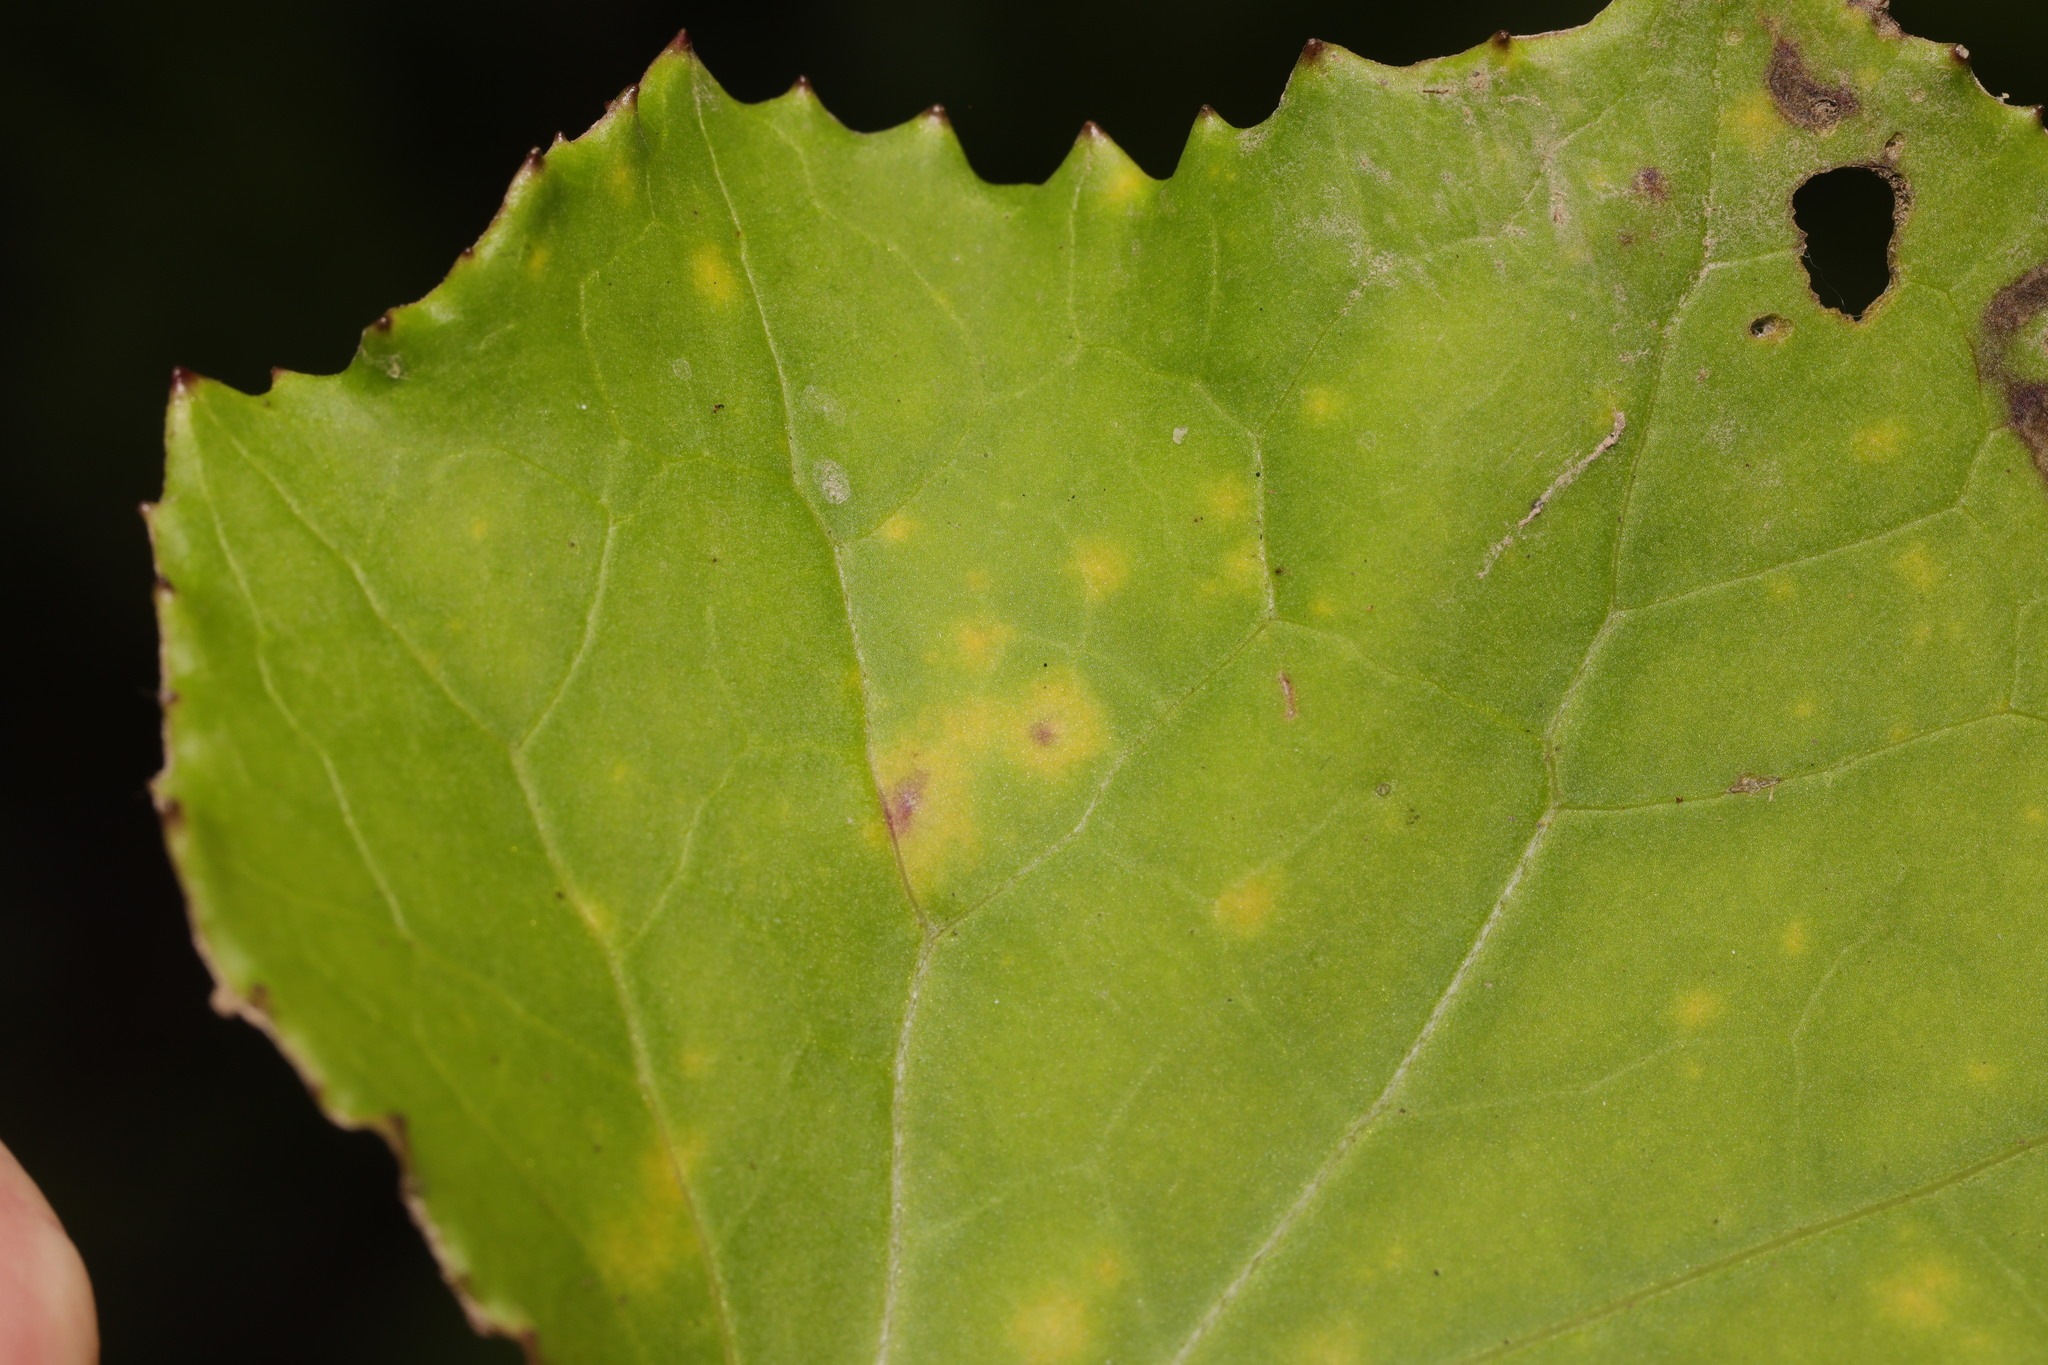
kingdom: Fungi
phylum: Basidiomycota
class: Pucciniomycetes
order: Pucciniales
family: Coleosporiaceae
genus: Coleosporium
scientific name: Coleosporium tussilaginis
